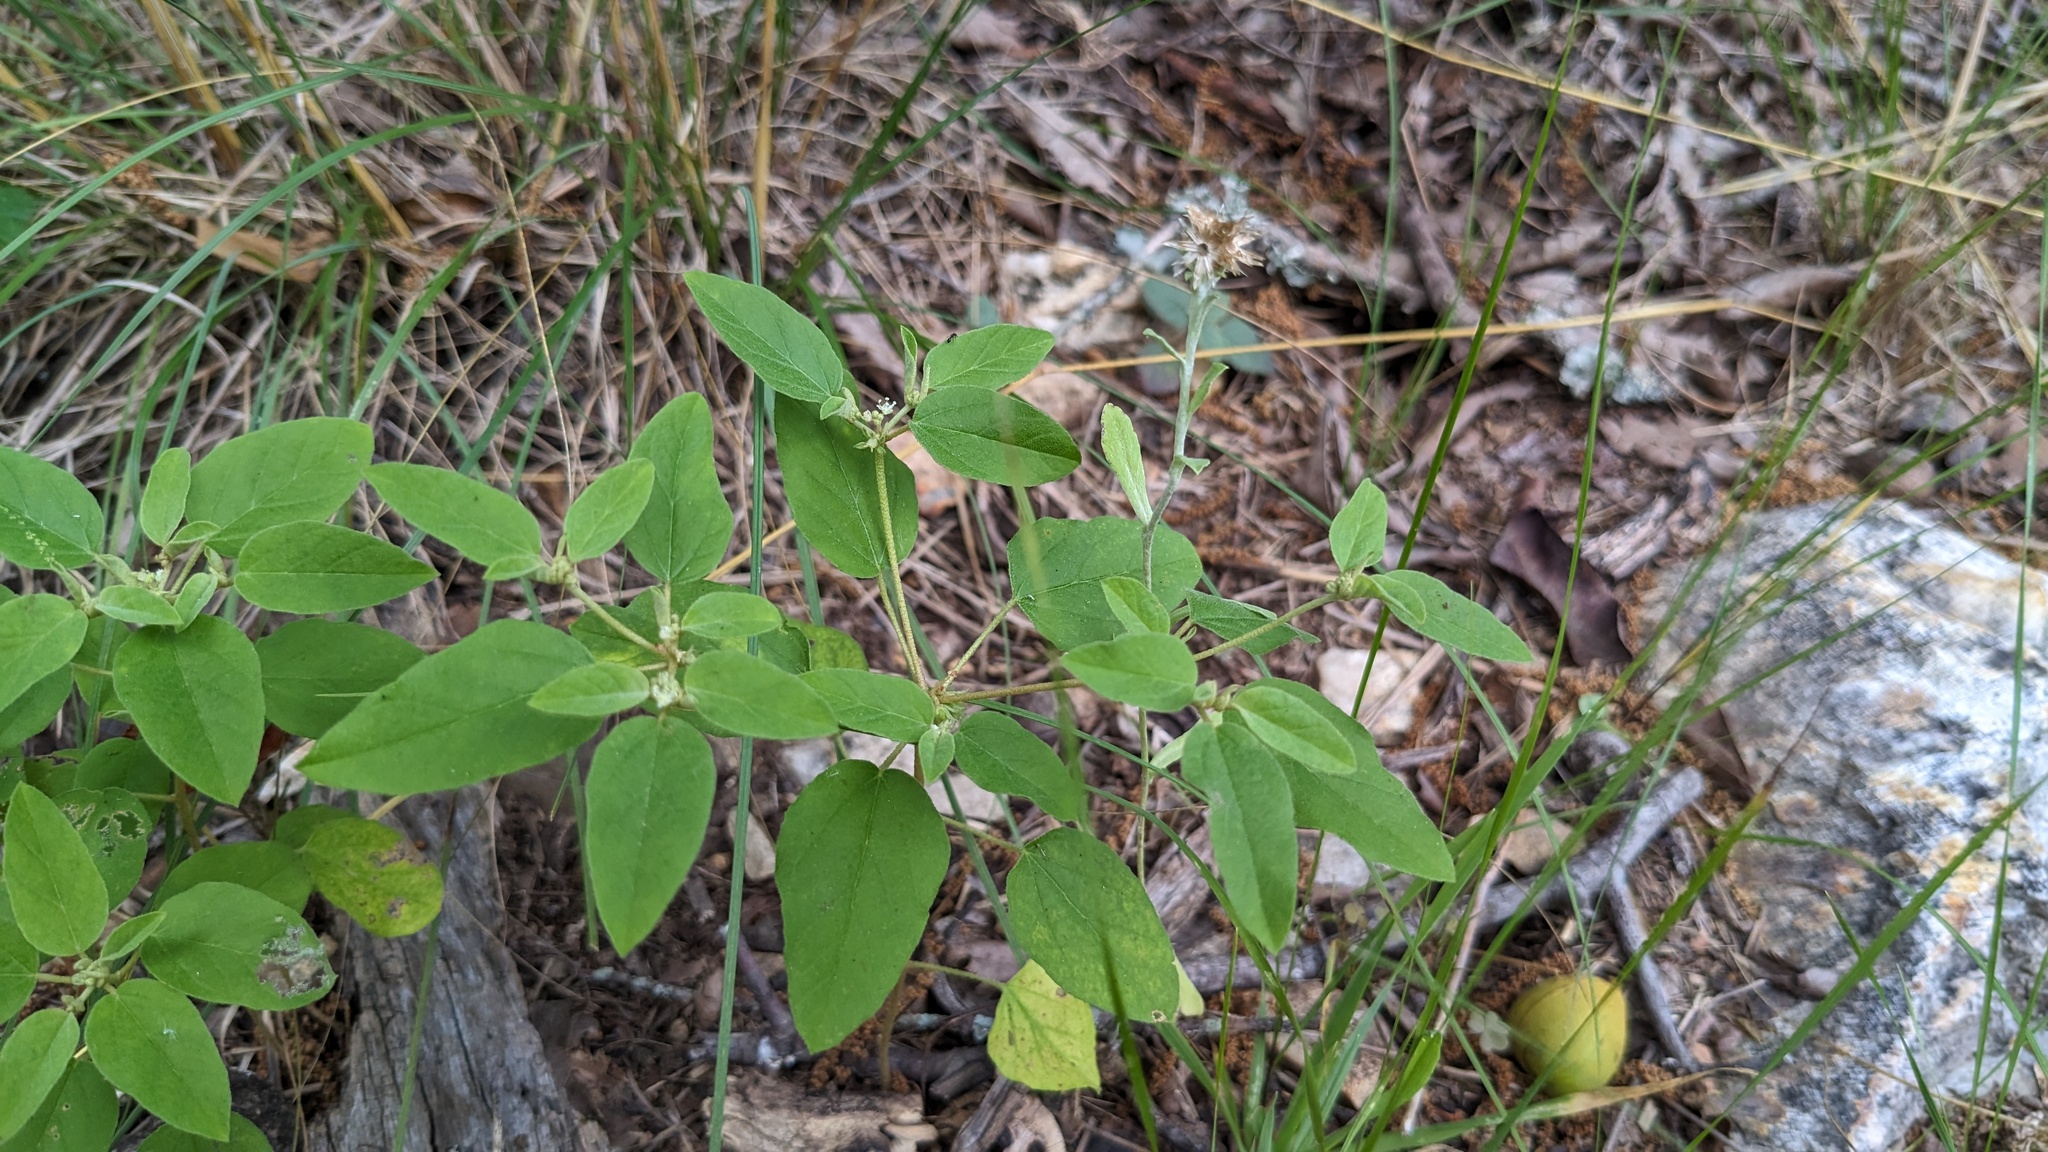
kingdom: Plantae
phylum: Tracheophyta
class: Magnoliopsida
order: Malpighiales
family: Euphorbiaceae
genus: Croton
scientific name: Croton monanthogynus
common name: One-seed croton
